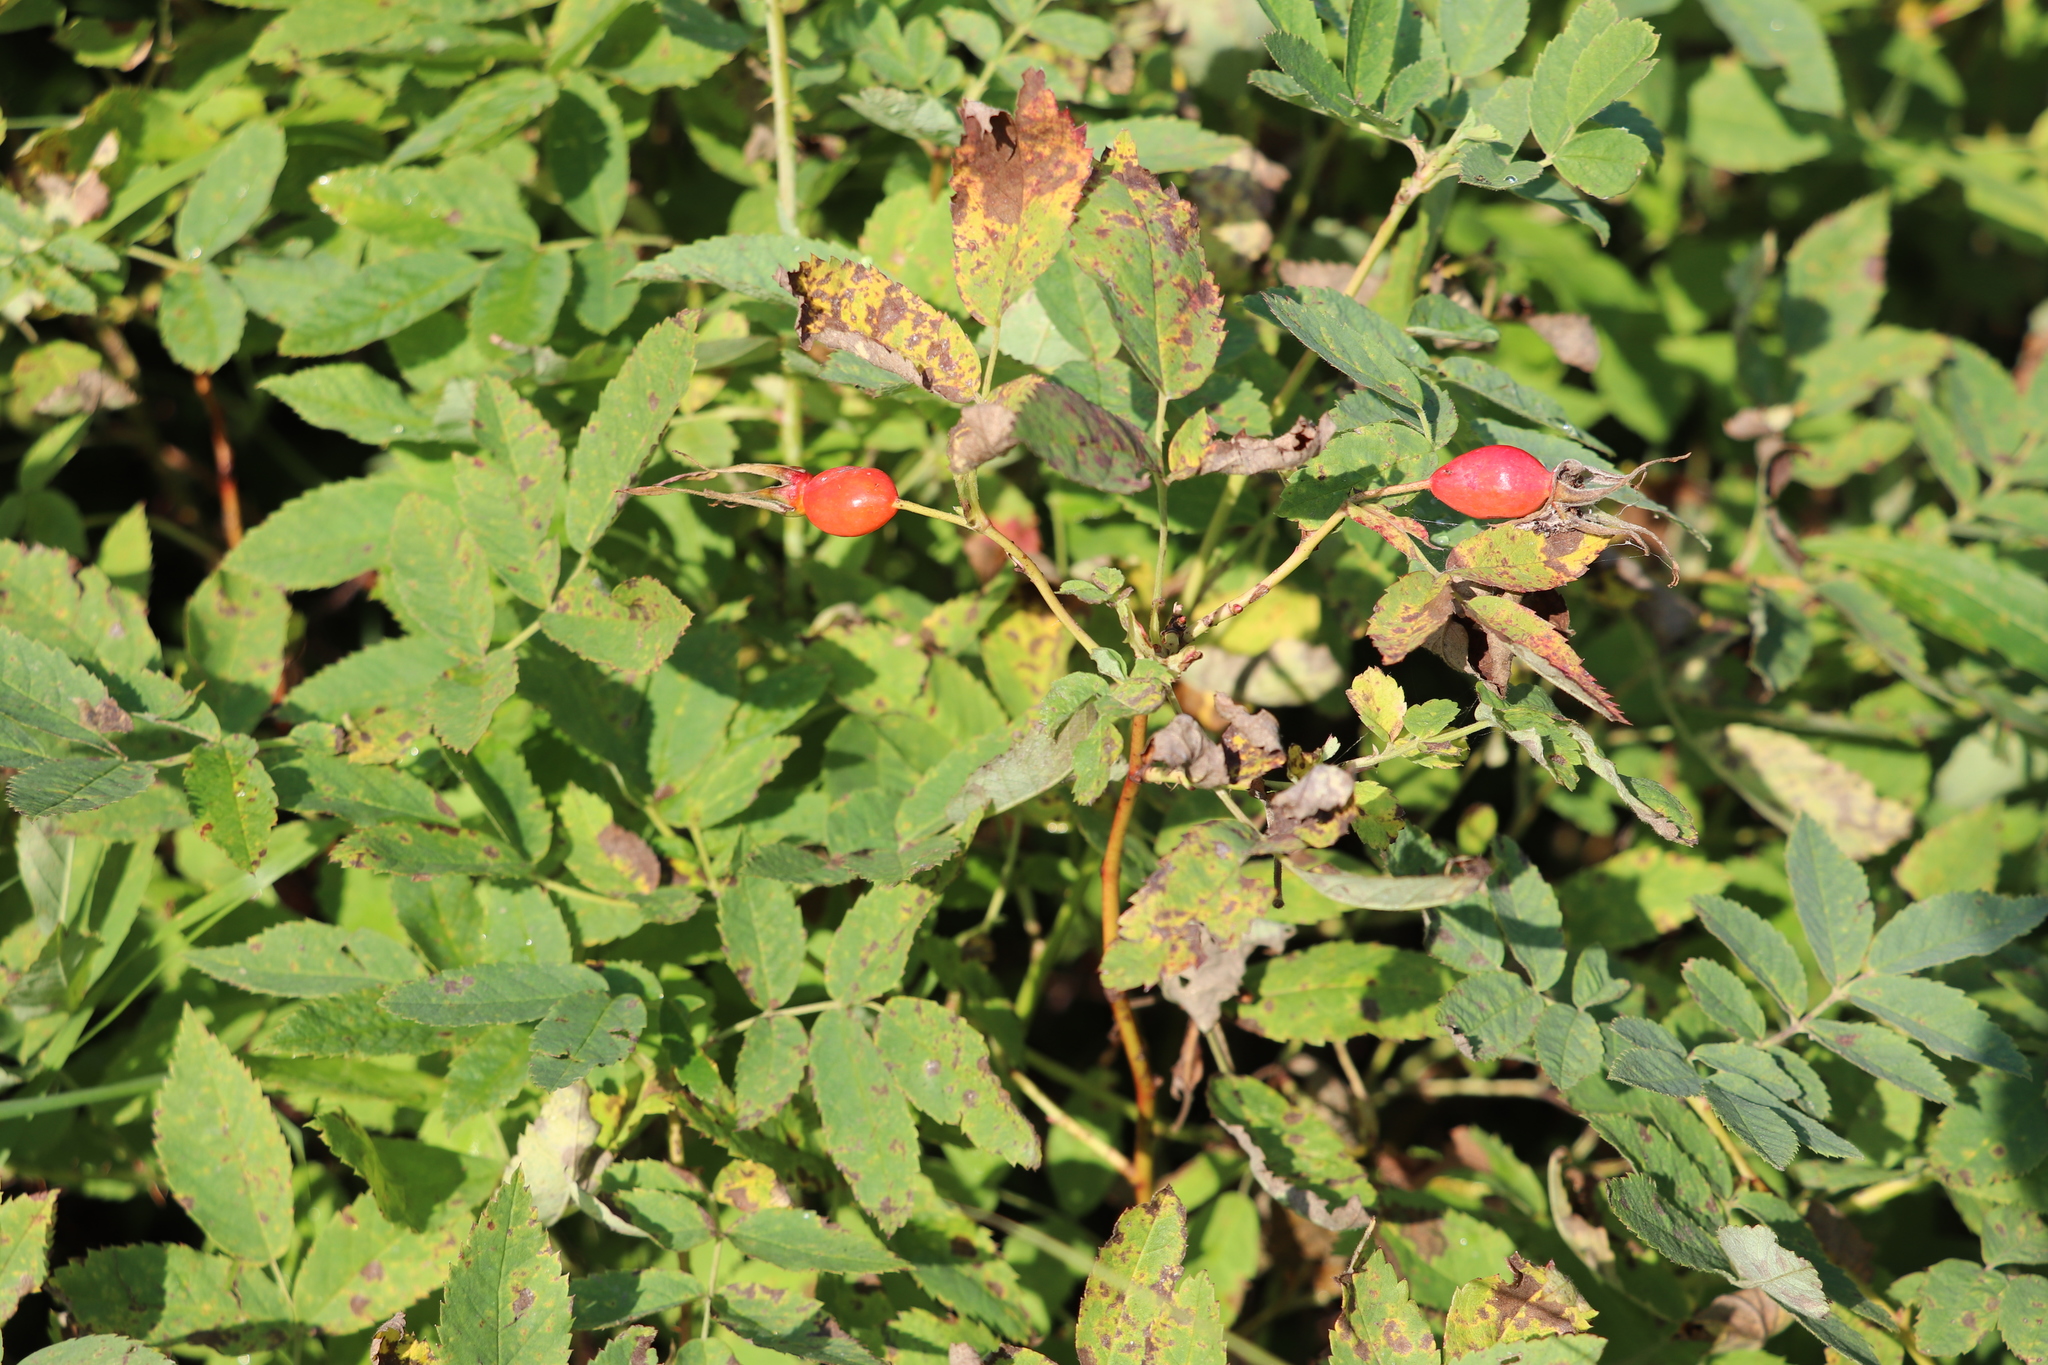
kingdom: Plantae
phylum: Tracheophyta
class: Magnoliopsida
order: Rosales
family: Rosaceae
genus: Rosa
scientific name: Rosa majalis
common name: Cinnamon rose
